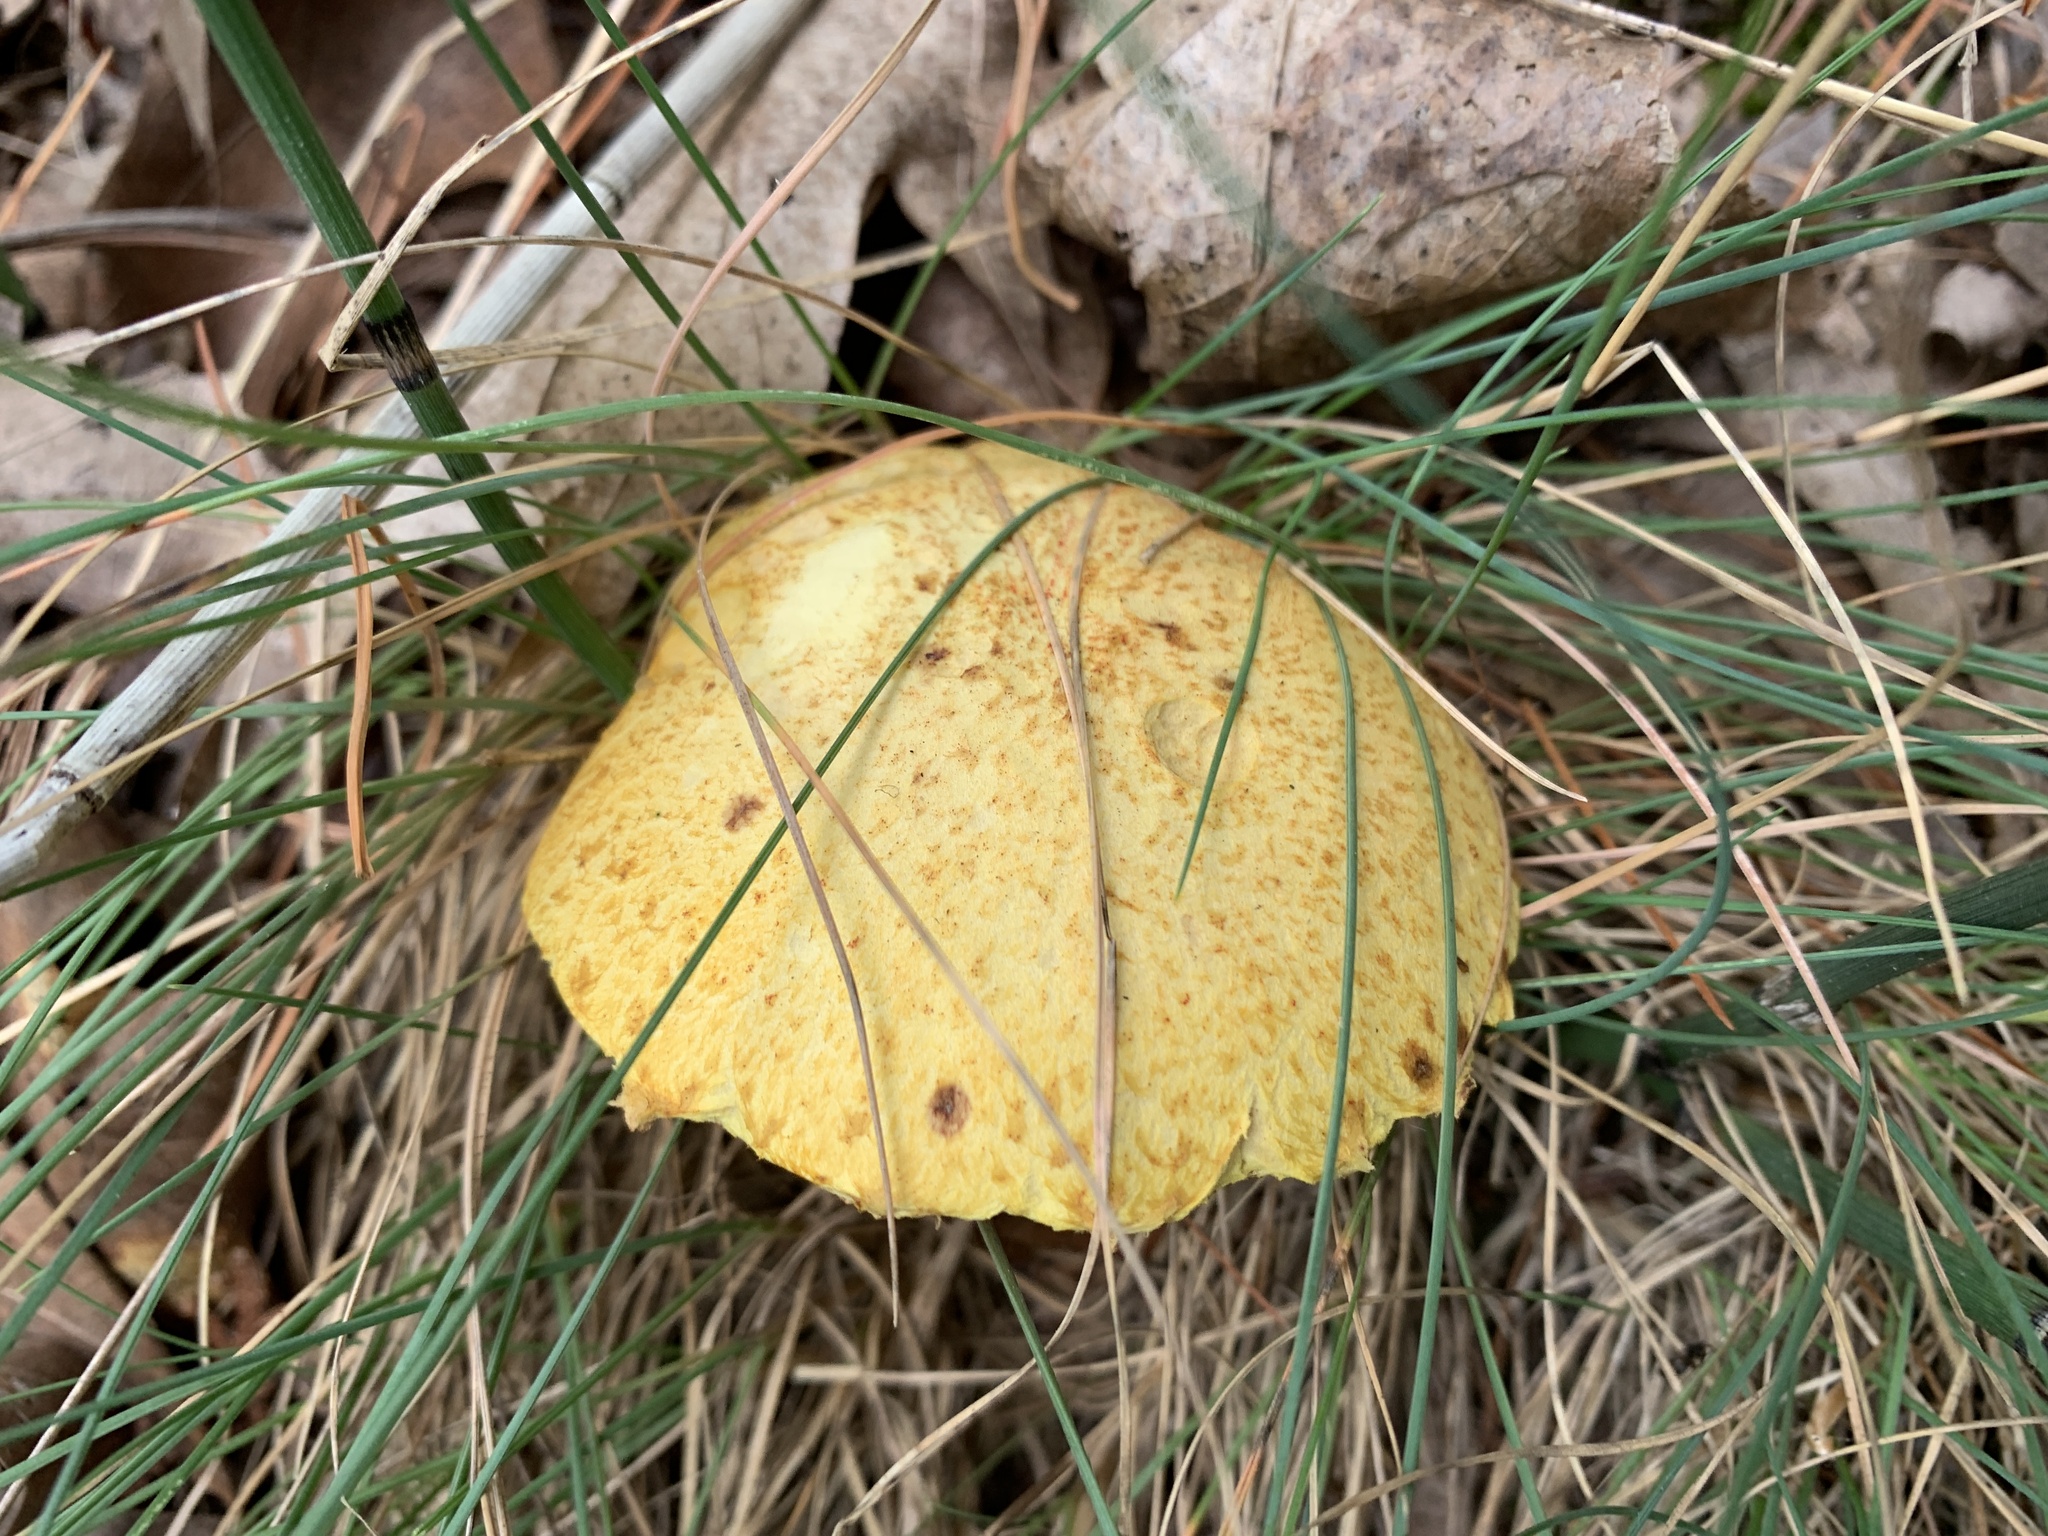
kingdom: Fungi
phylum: Basidiomycota
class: Agaricomycetes
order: Boletales
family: Suillaceae
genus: Suillus
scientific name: Suillus americanus
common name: Chicken fat mushroom
